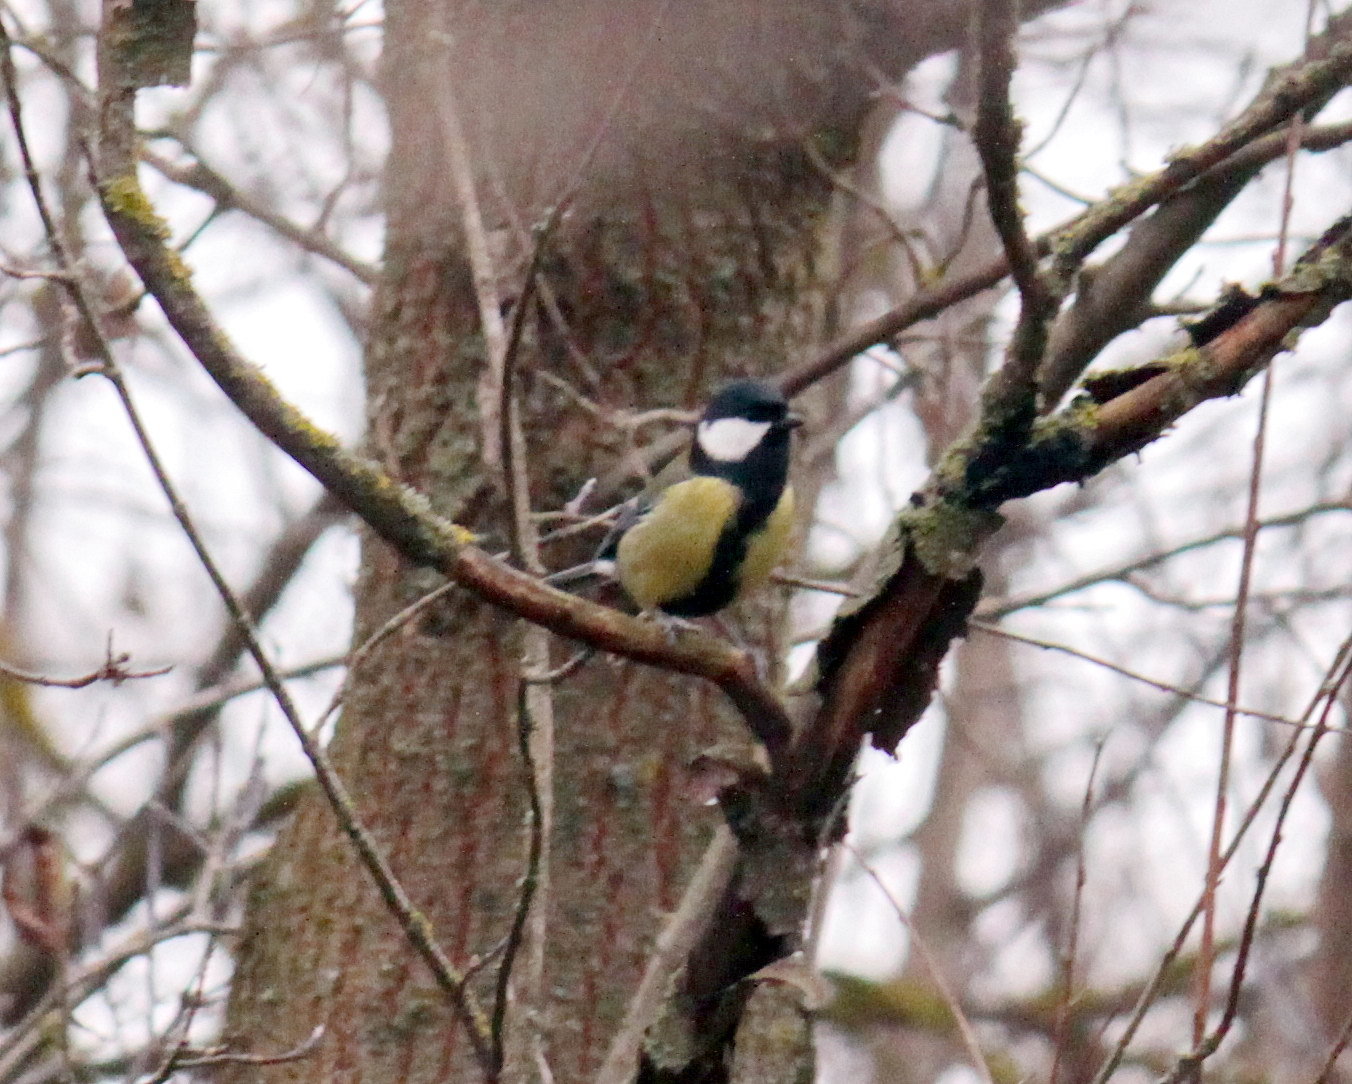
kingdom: Animalia
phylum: Chordata
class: Aves
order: Passeriformes
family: Paridae
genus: Parus
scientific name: Parus major
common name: Great tit
